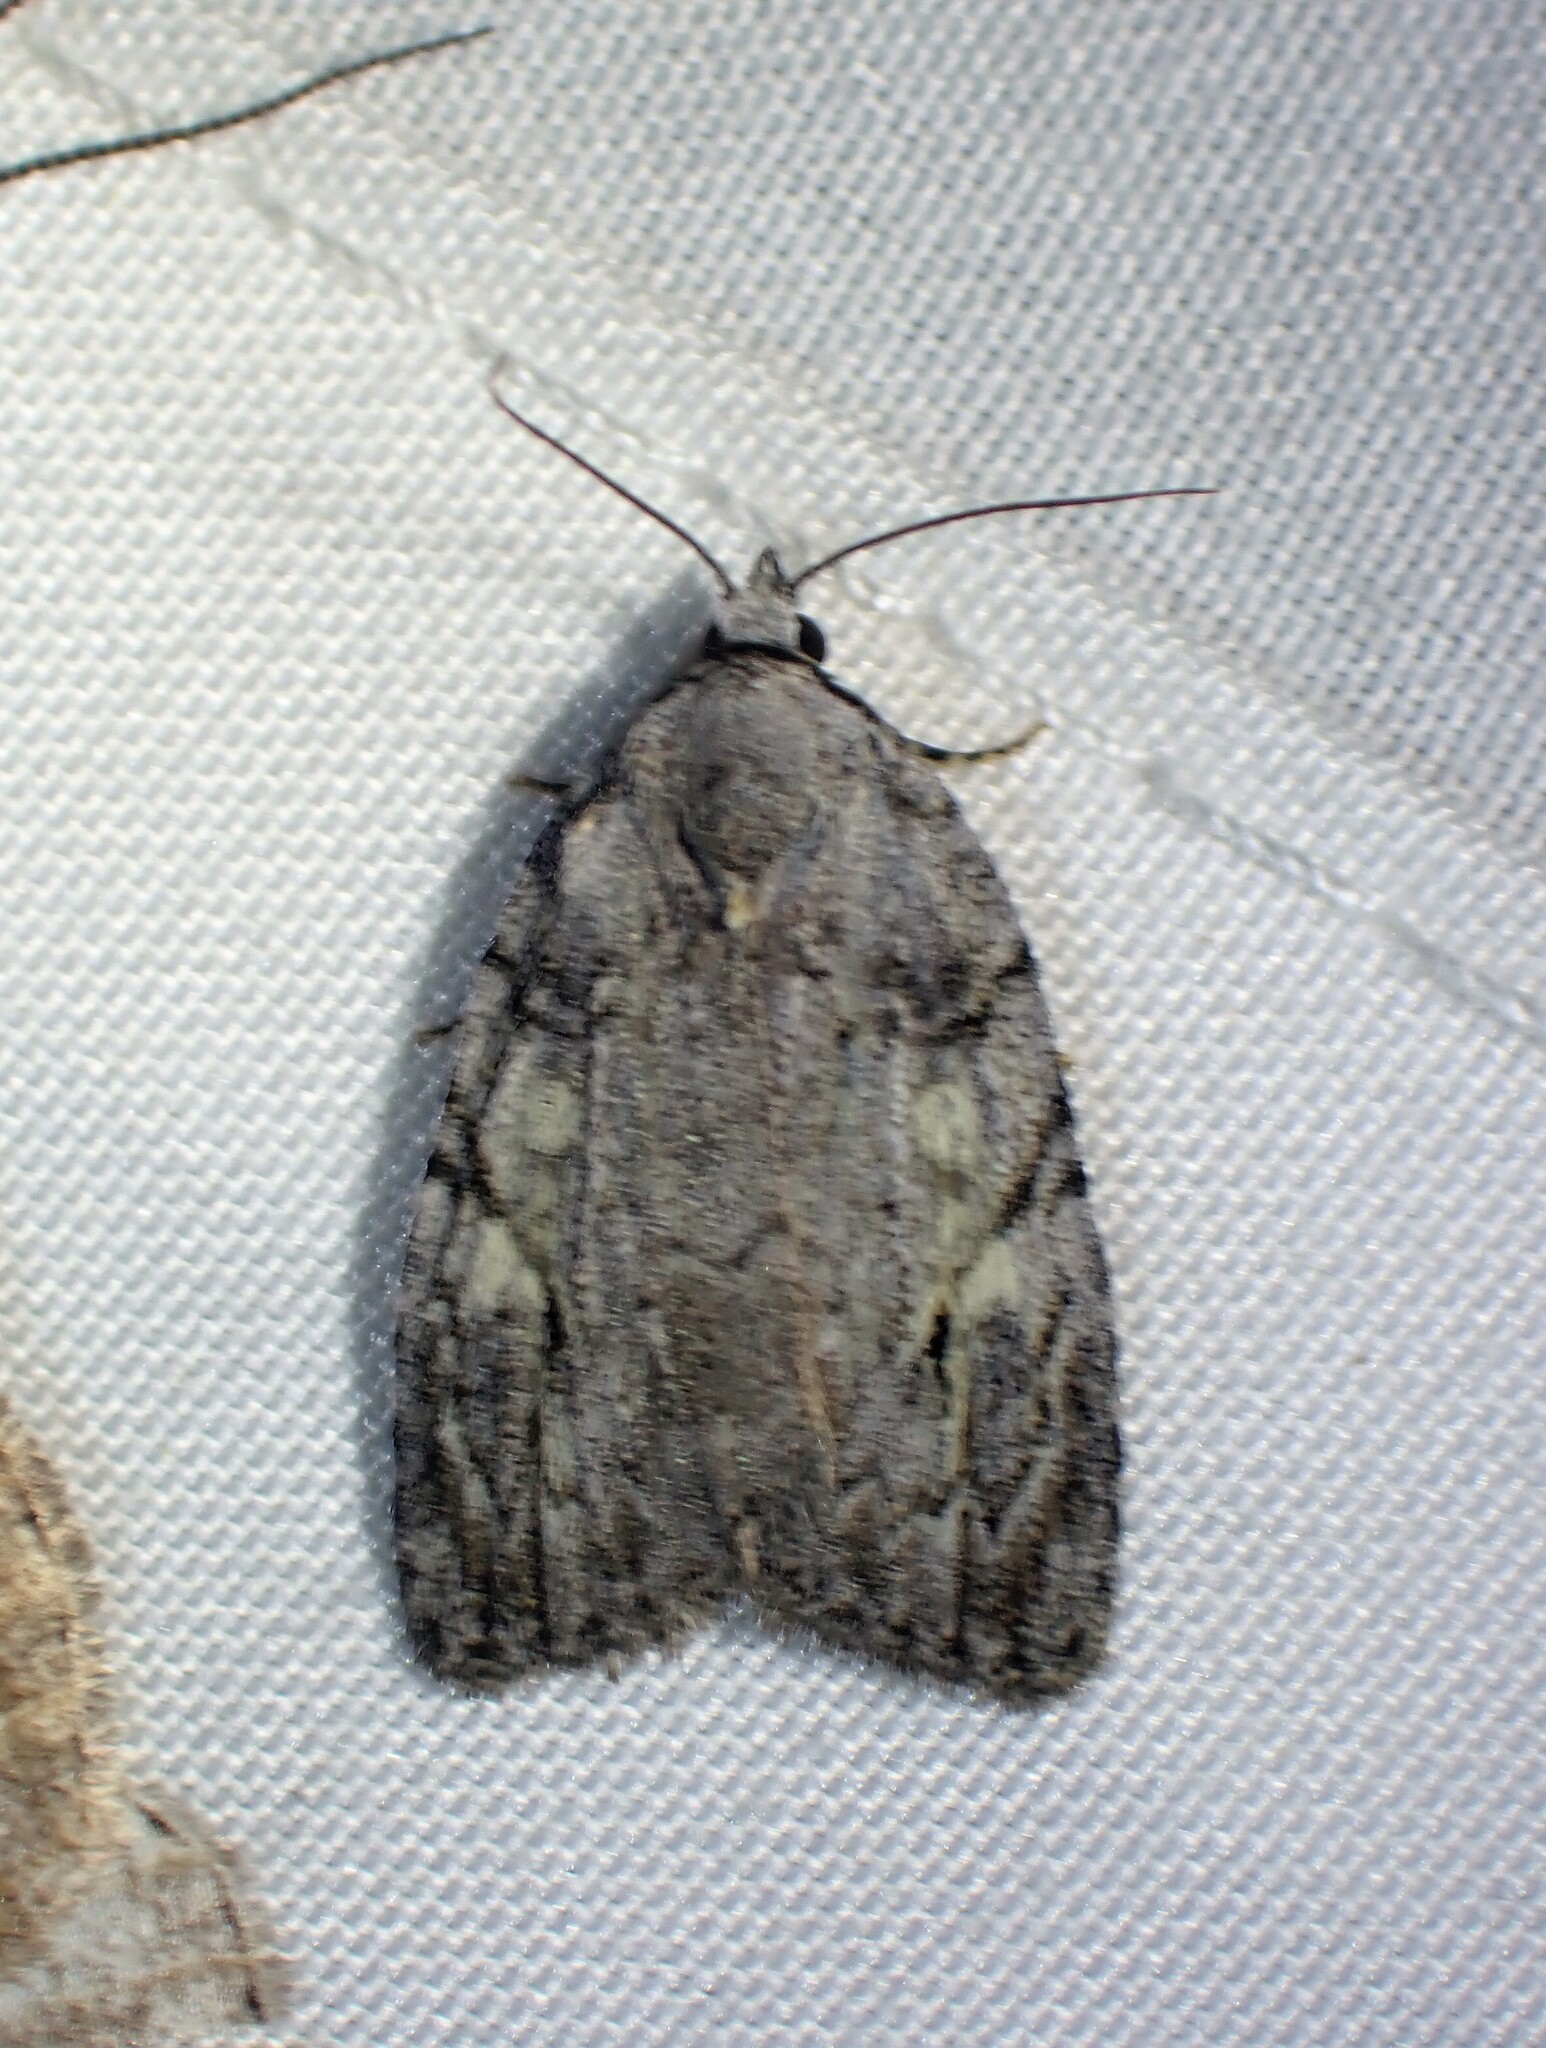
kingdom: Animalia
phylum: Arthropoda
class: Insecta
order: Lepidoptera
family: Noctuidae
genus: Balsa
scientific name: Balsa labecula
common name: White-blotched balsa moth
